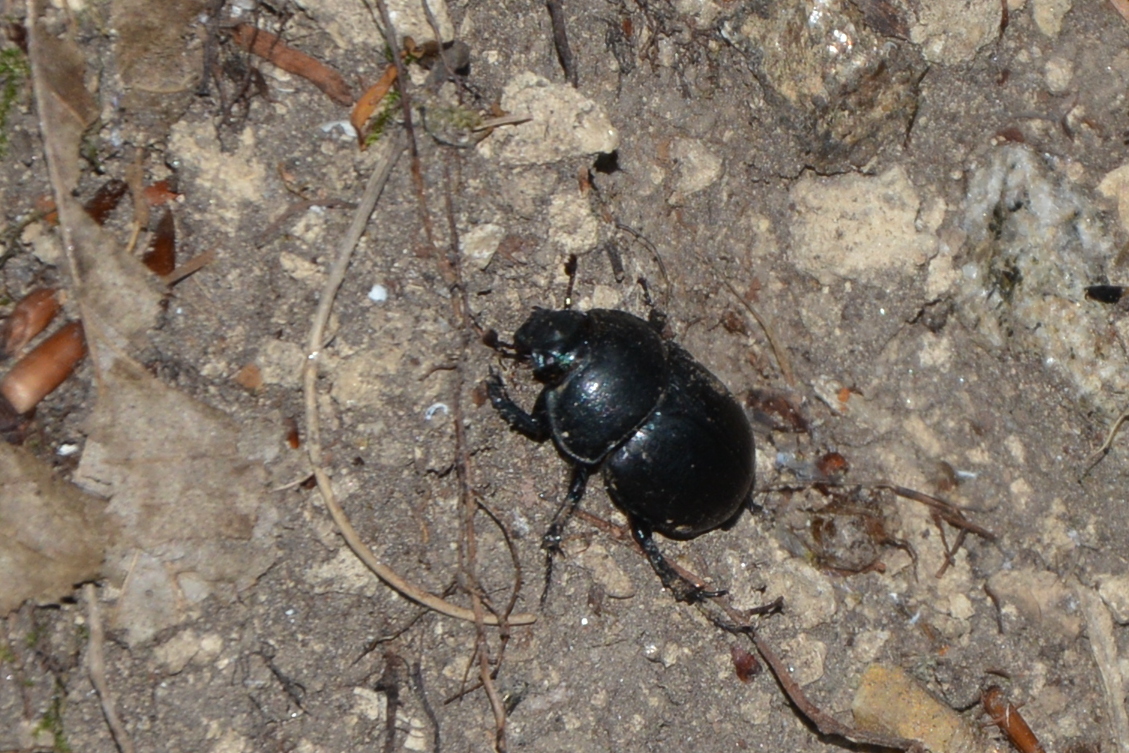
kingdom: Animalia
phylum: Arthropoda
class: Insecta
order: Coleoptera
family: Geotrupidae
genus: Anoplotrupes
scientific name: Anoplotrupes stercorosus
